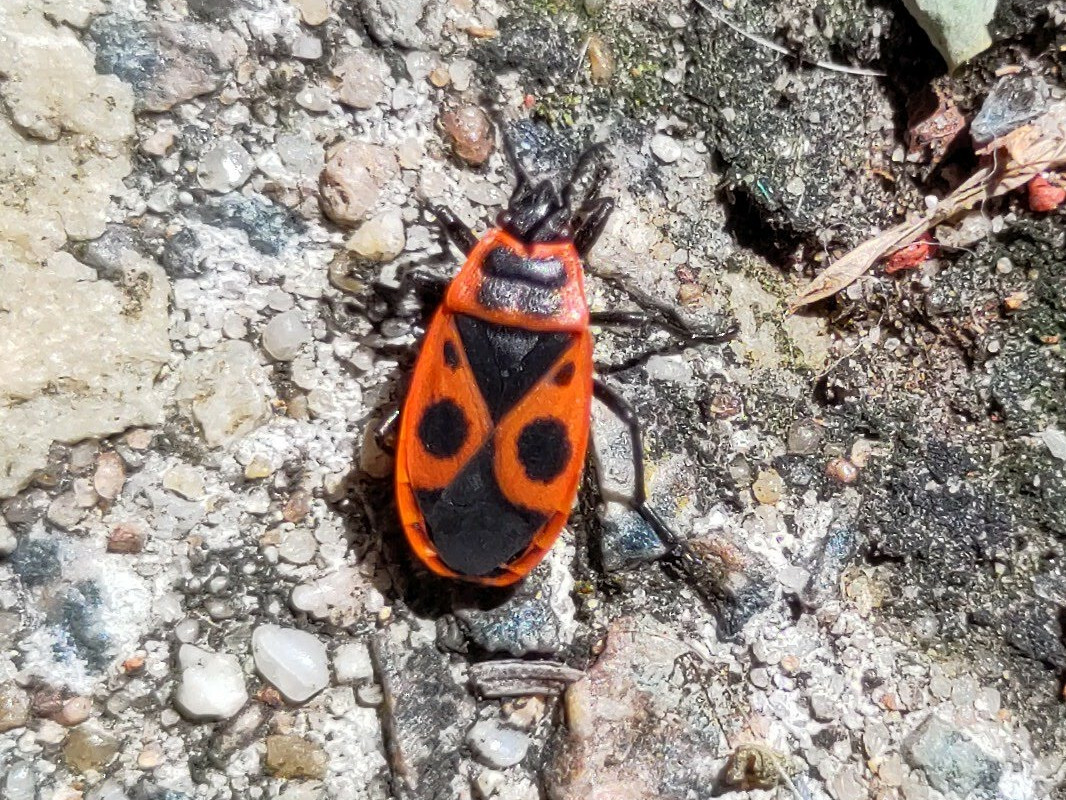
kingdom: Animalia
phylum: Arthropoda
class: Insecta
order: Hemiptera
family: Pyrrhocoridae
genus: Pyrrhocoris
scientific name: Pyrrhocoris apterus
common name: Firebug
